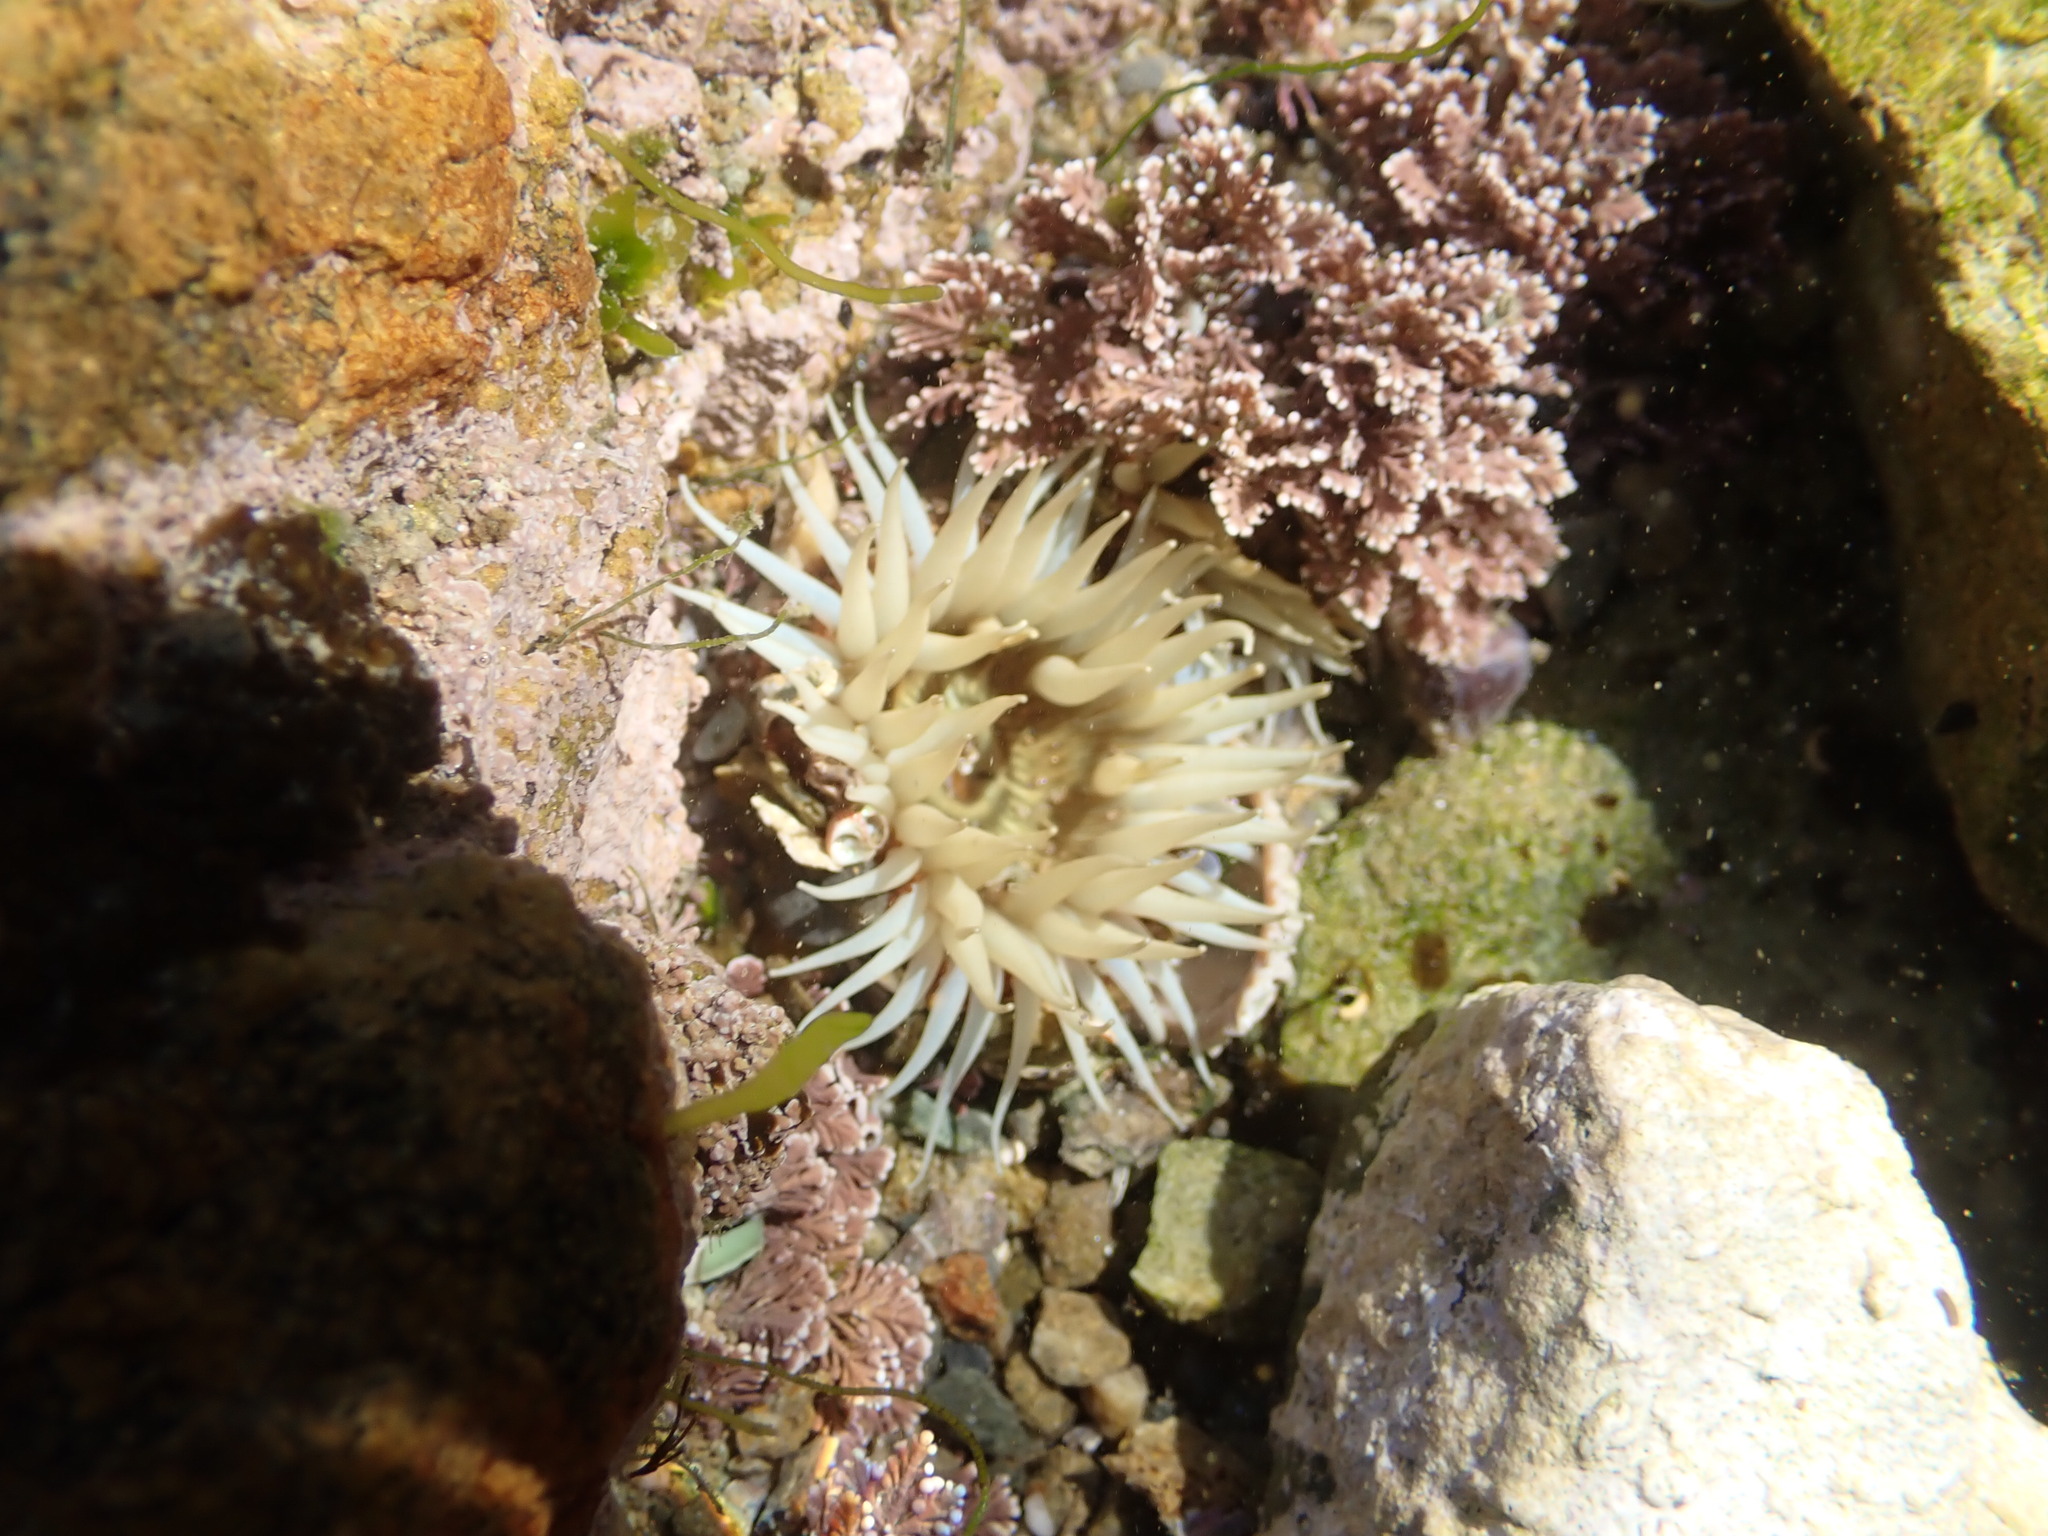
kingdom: Animalia
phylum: Cnidaria
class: Anthozoa
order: Actiniaria
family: Sagartiidae
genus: Anthothoe
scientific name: Anthothoe albocincta
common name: Orange striped anemone
